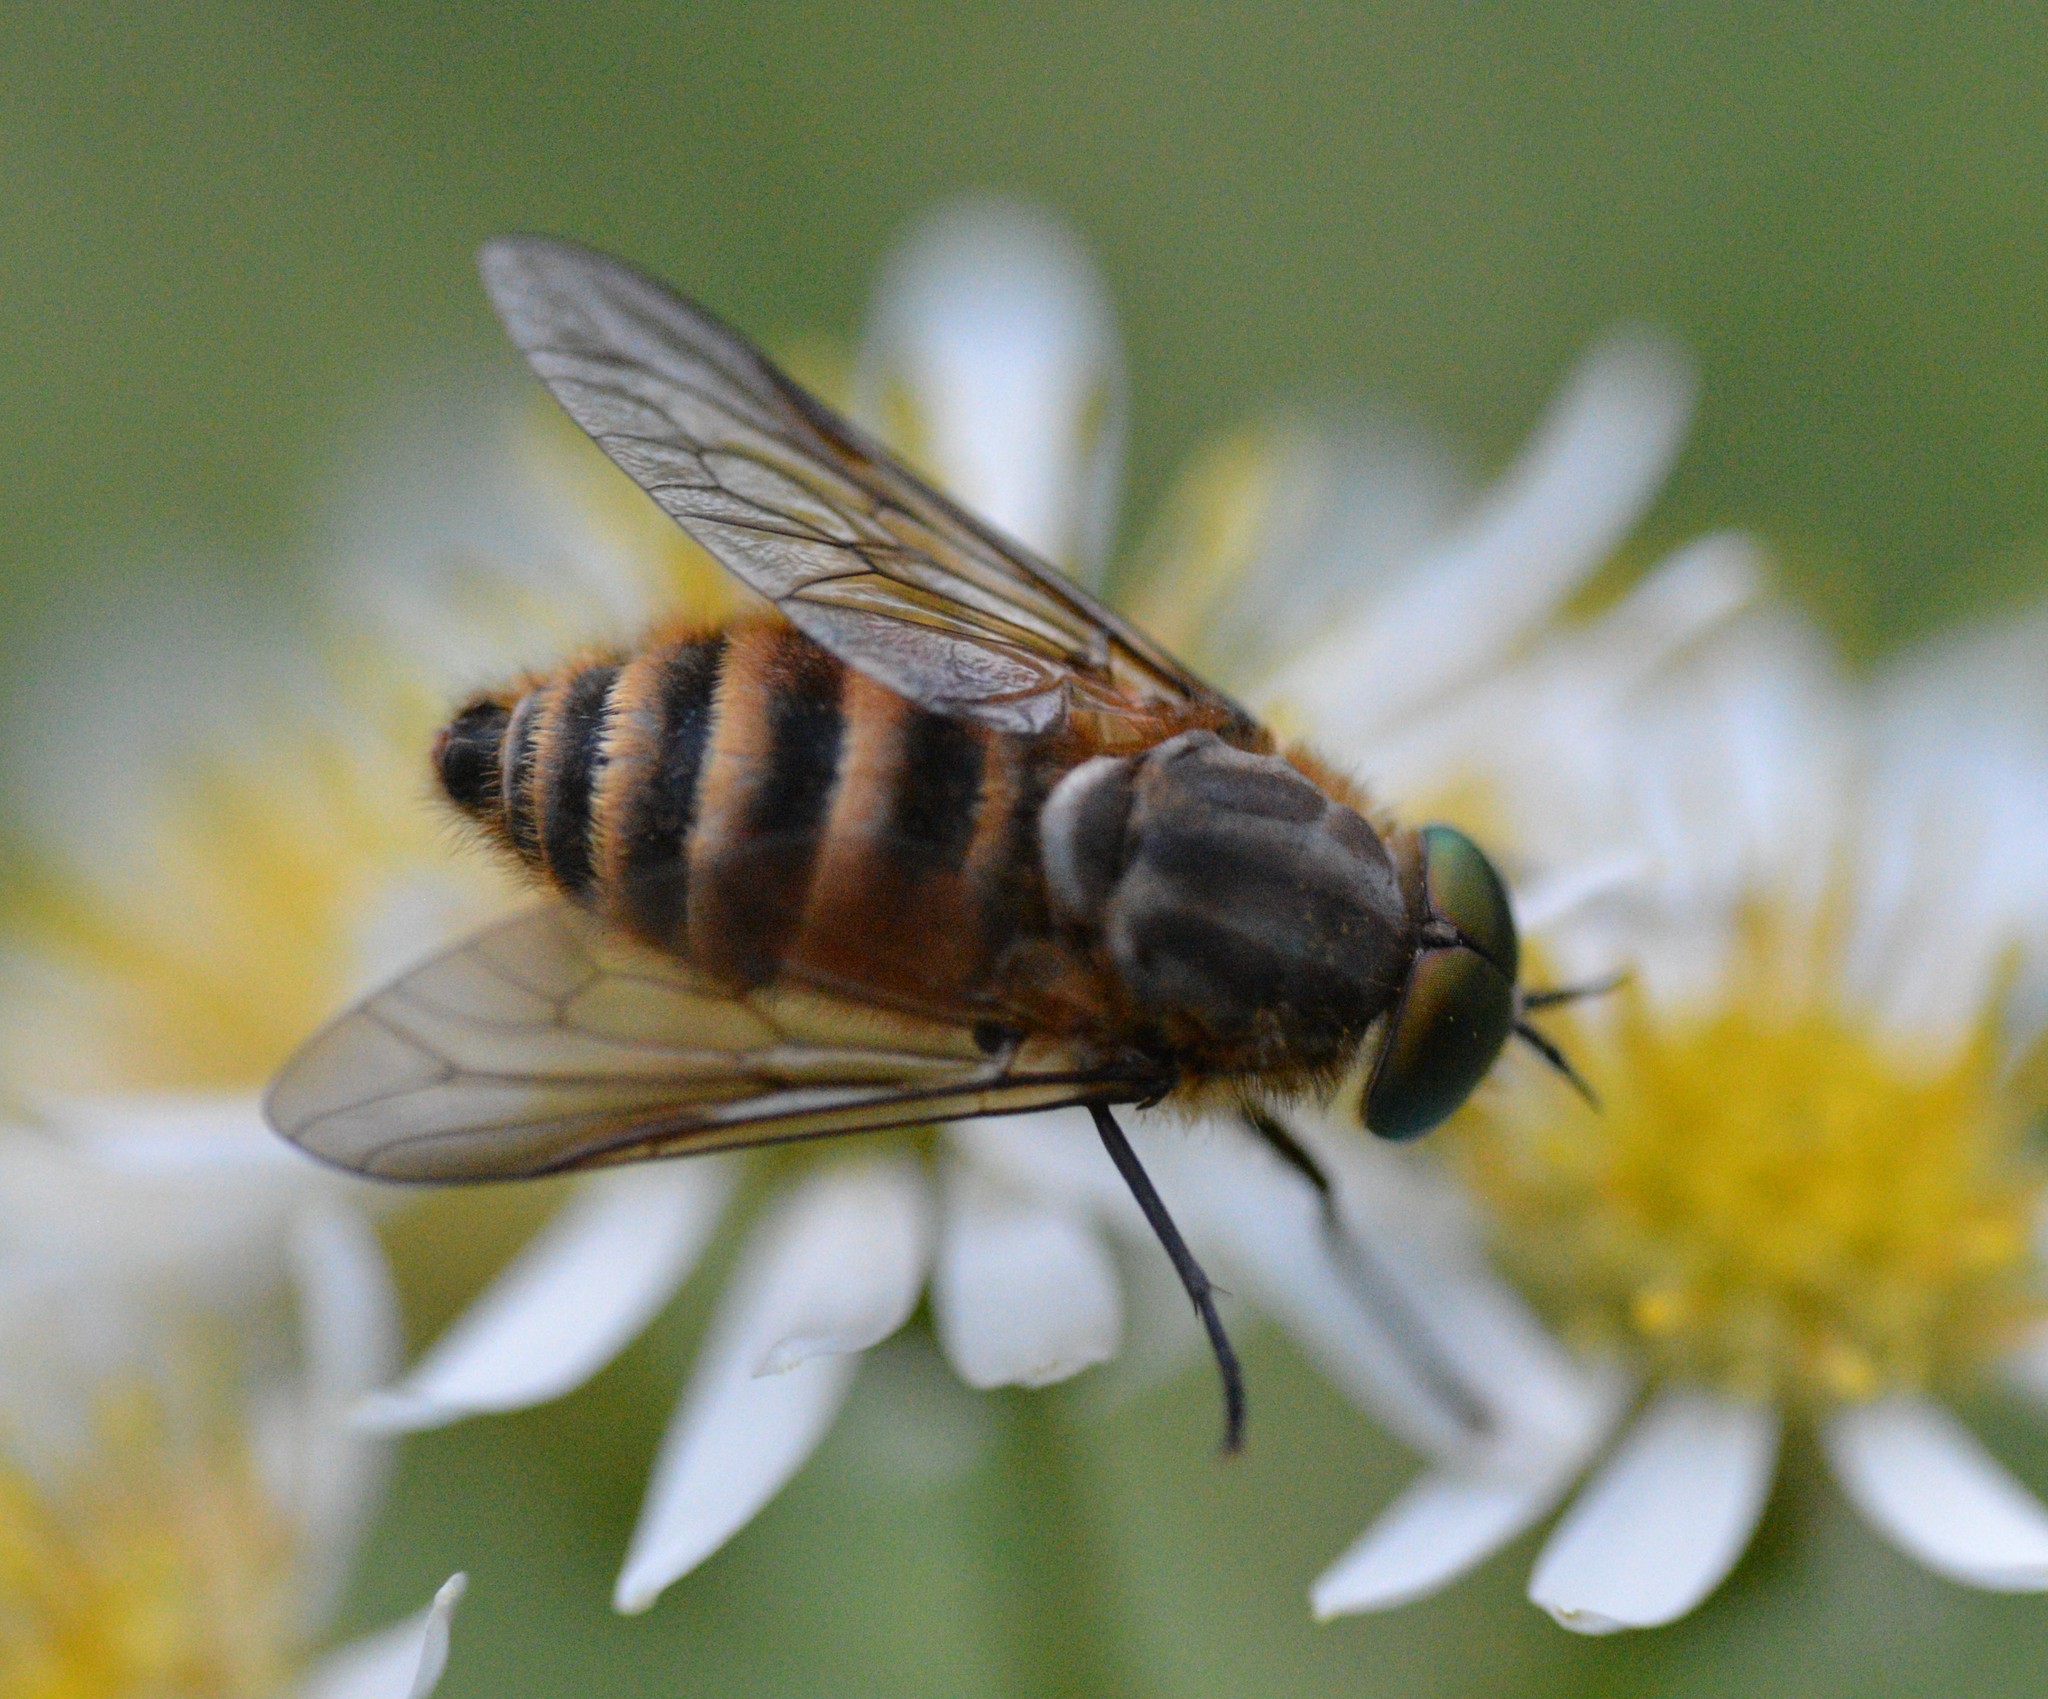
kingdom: Animalia
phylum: Arthropoda
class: Insecta
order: Diptera
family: Tabanidae
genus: Stonemyia
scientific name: Stonemyia tranquilla
